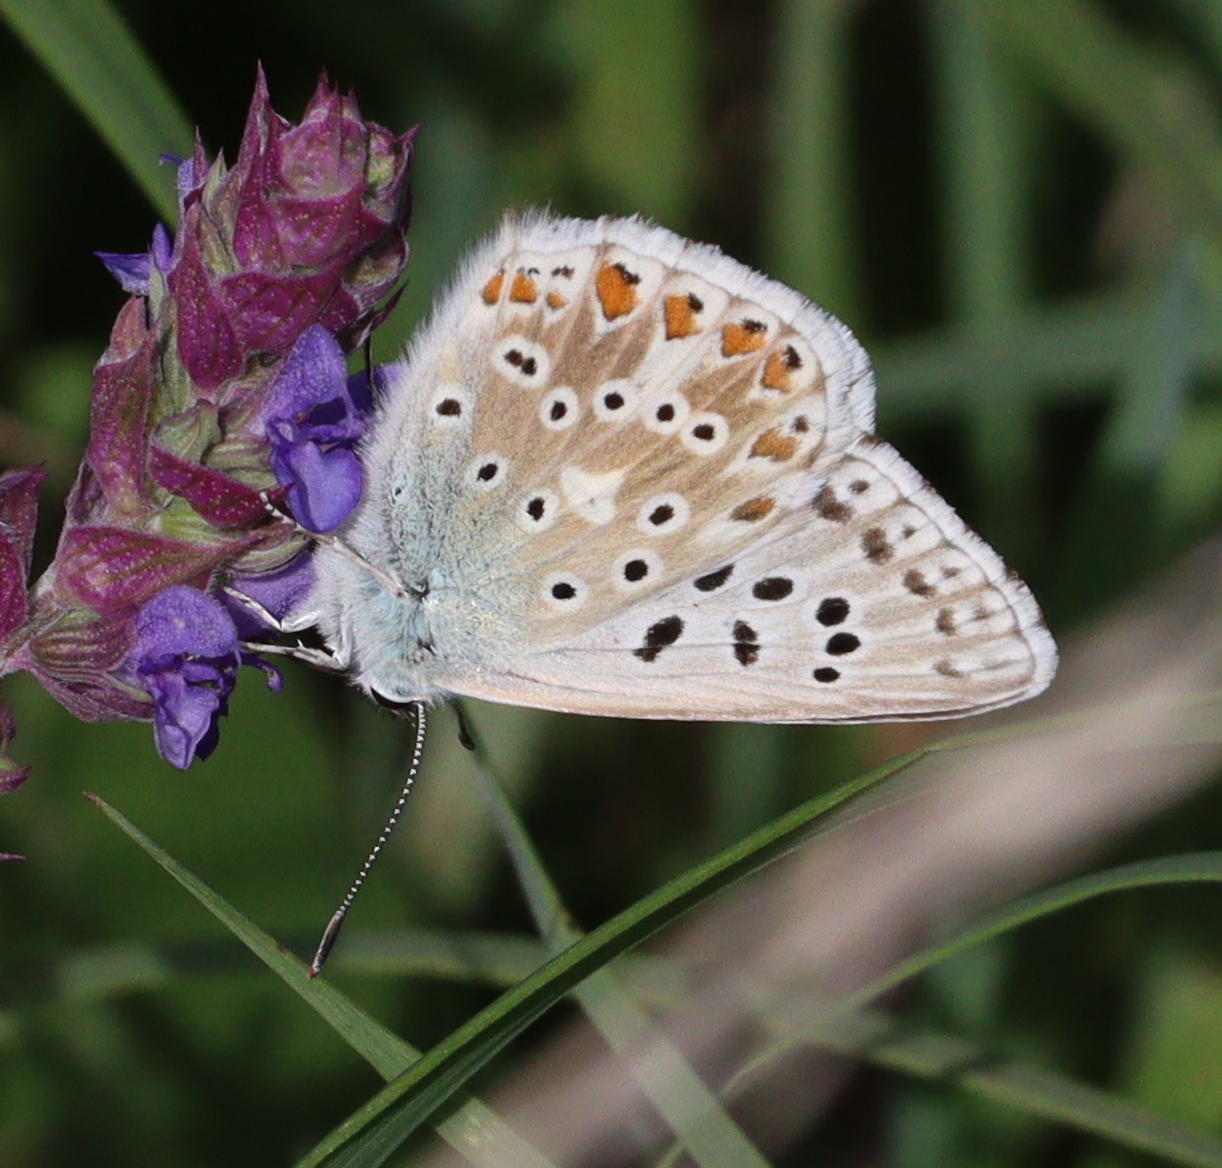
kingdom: Animalia
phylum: Arthropoda
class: Insecta
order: Lepidoptera
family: Lycaenidae
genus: Lysandra
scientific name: Lysandra coridon
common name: Chalkhill blue
